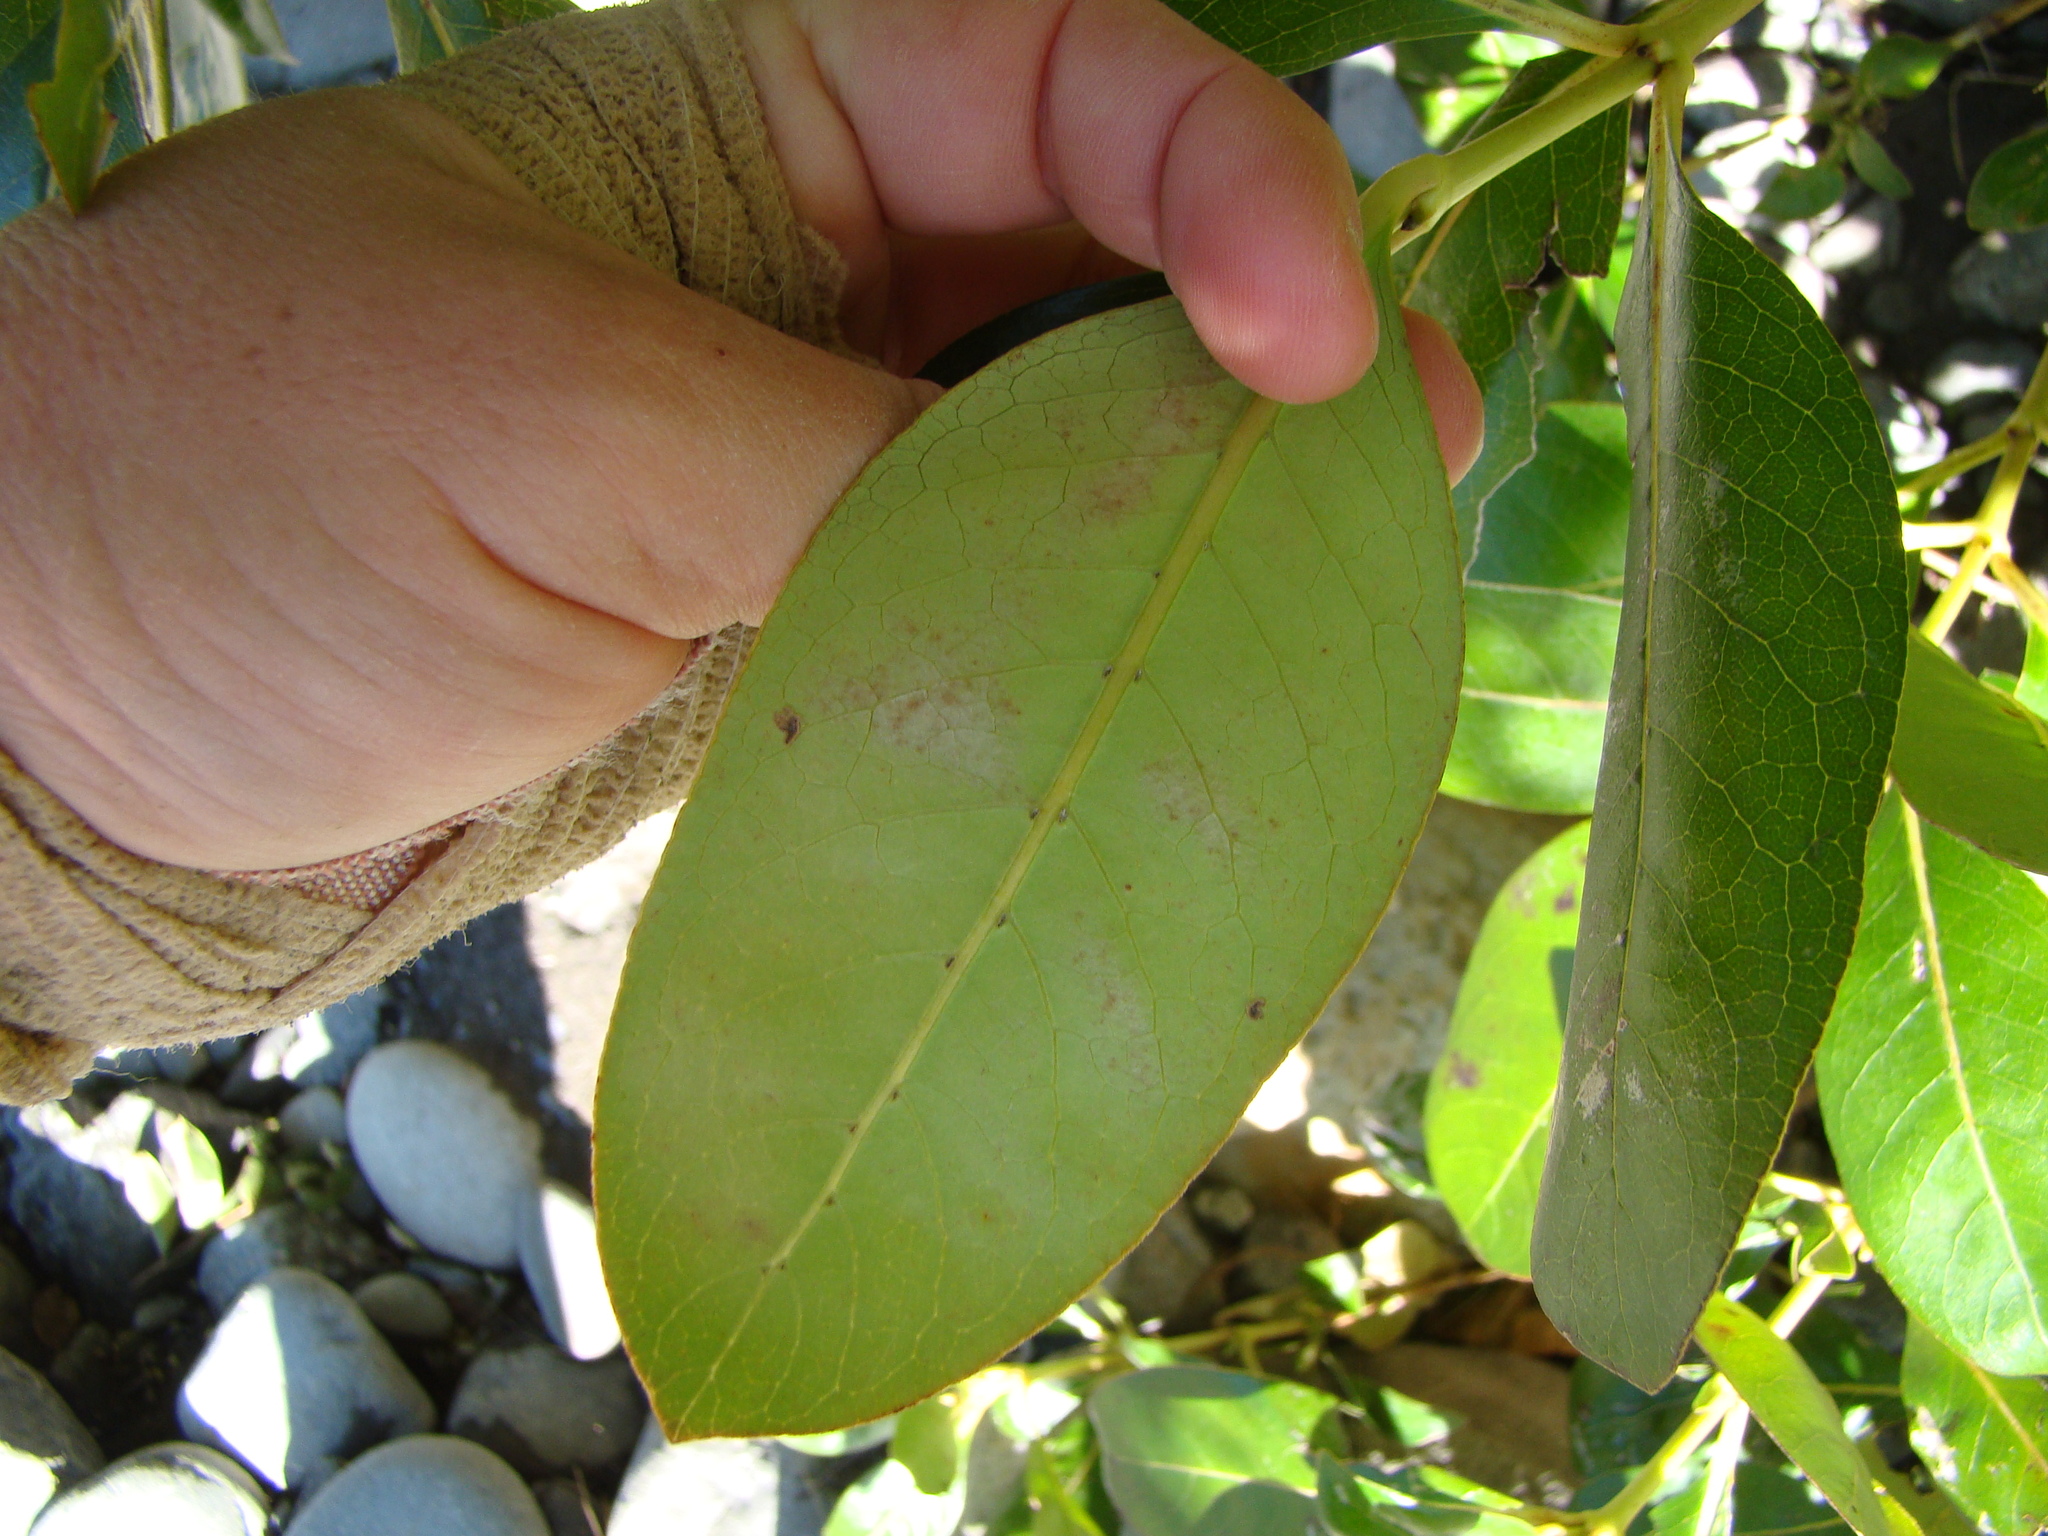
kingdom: Plantae
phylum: Tracheophyta
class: Magnoliopsida
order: Gentianales
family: Rubiaceae
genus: Coprosma
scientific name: Coprosma robusta
